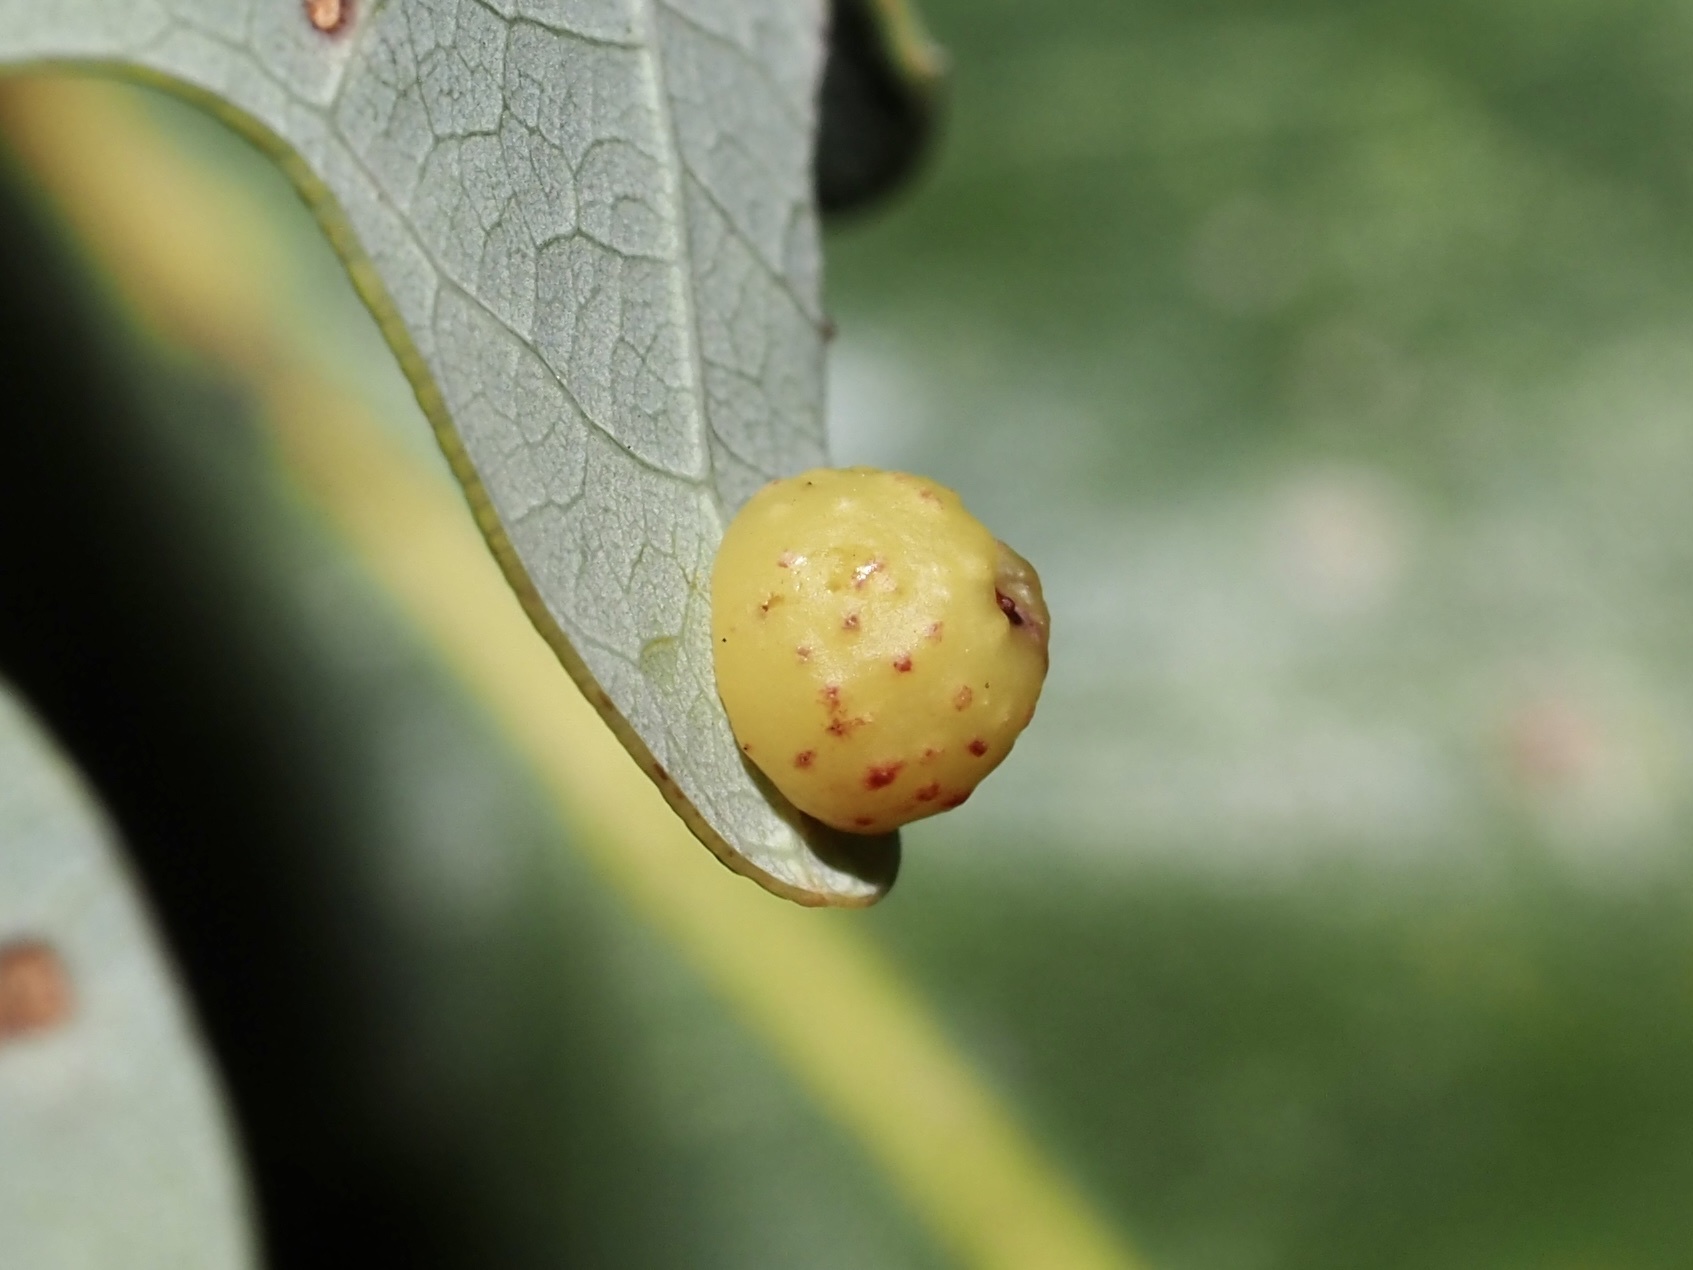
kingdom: Animalia
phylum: Arthropoda
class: Insecta
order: Hymenoptera
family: Cynipidae
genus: Andricus
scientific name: Andricus
